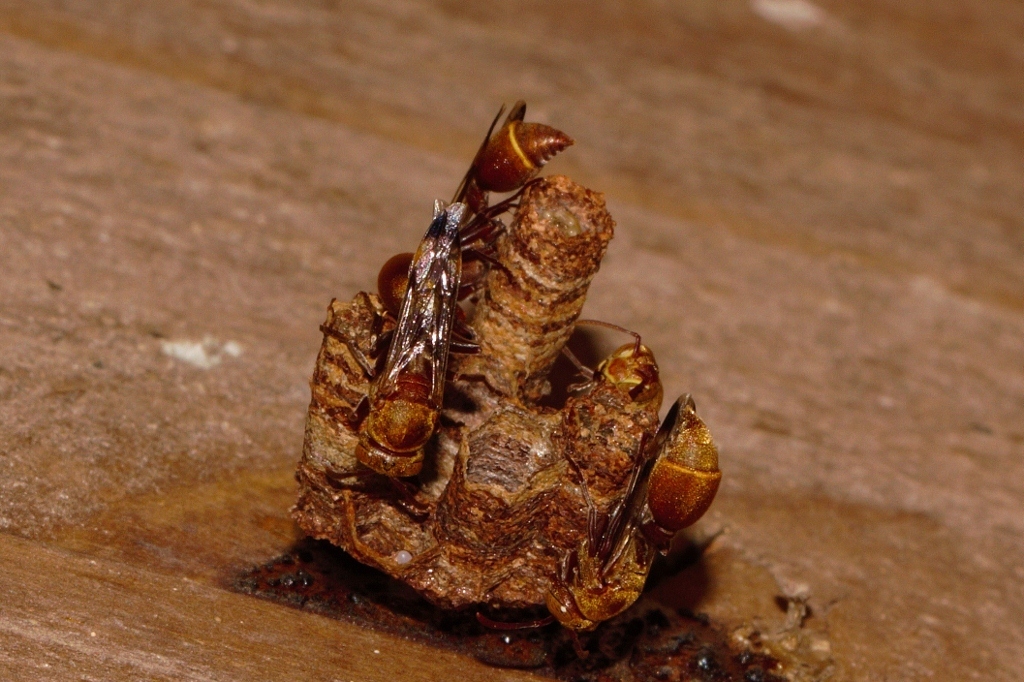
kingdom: Animalia
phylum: Arthropoda
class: Insecta
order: Hymenoptera
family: Vespidae
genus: Ropalidia
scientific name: Ropalidia distigma
